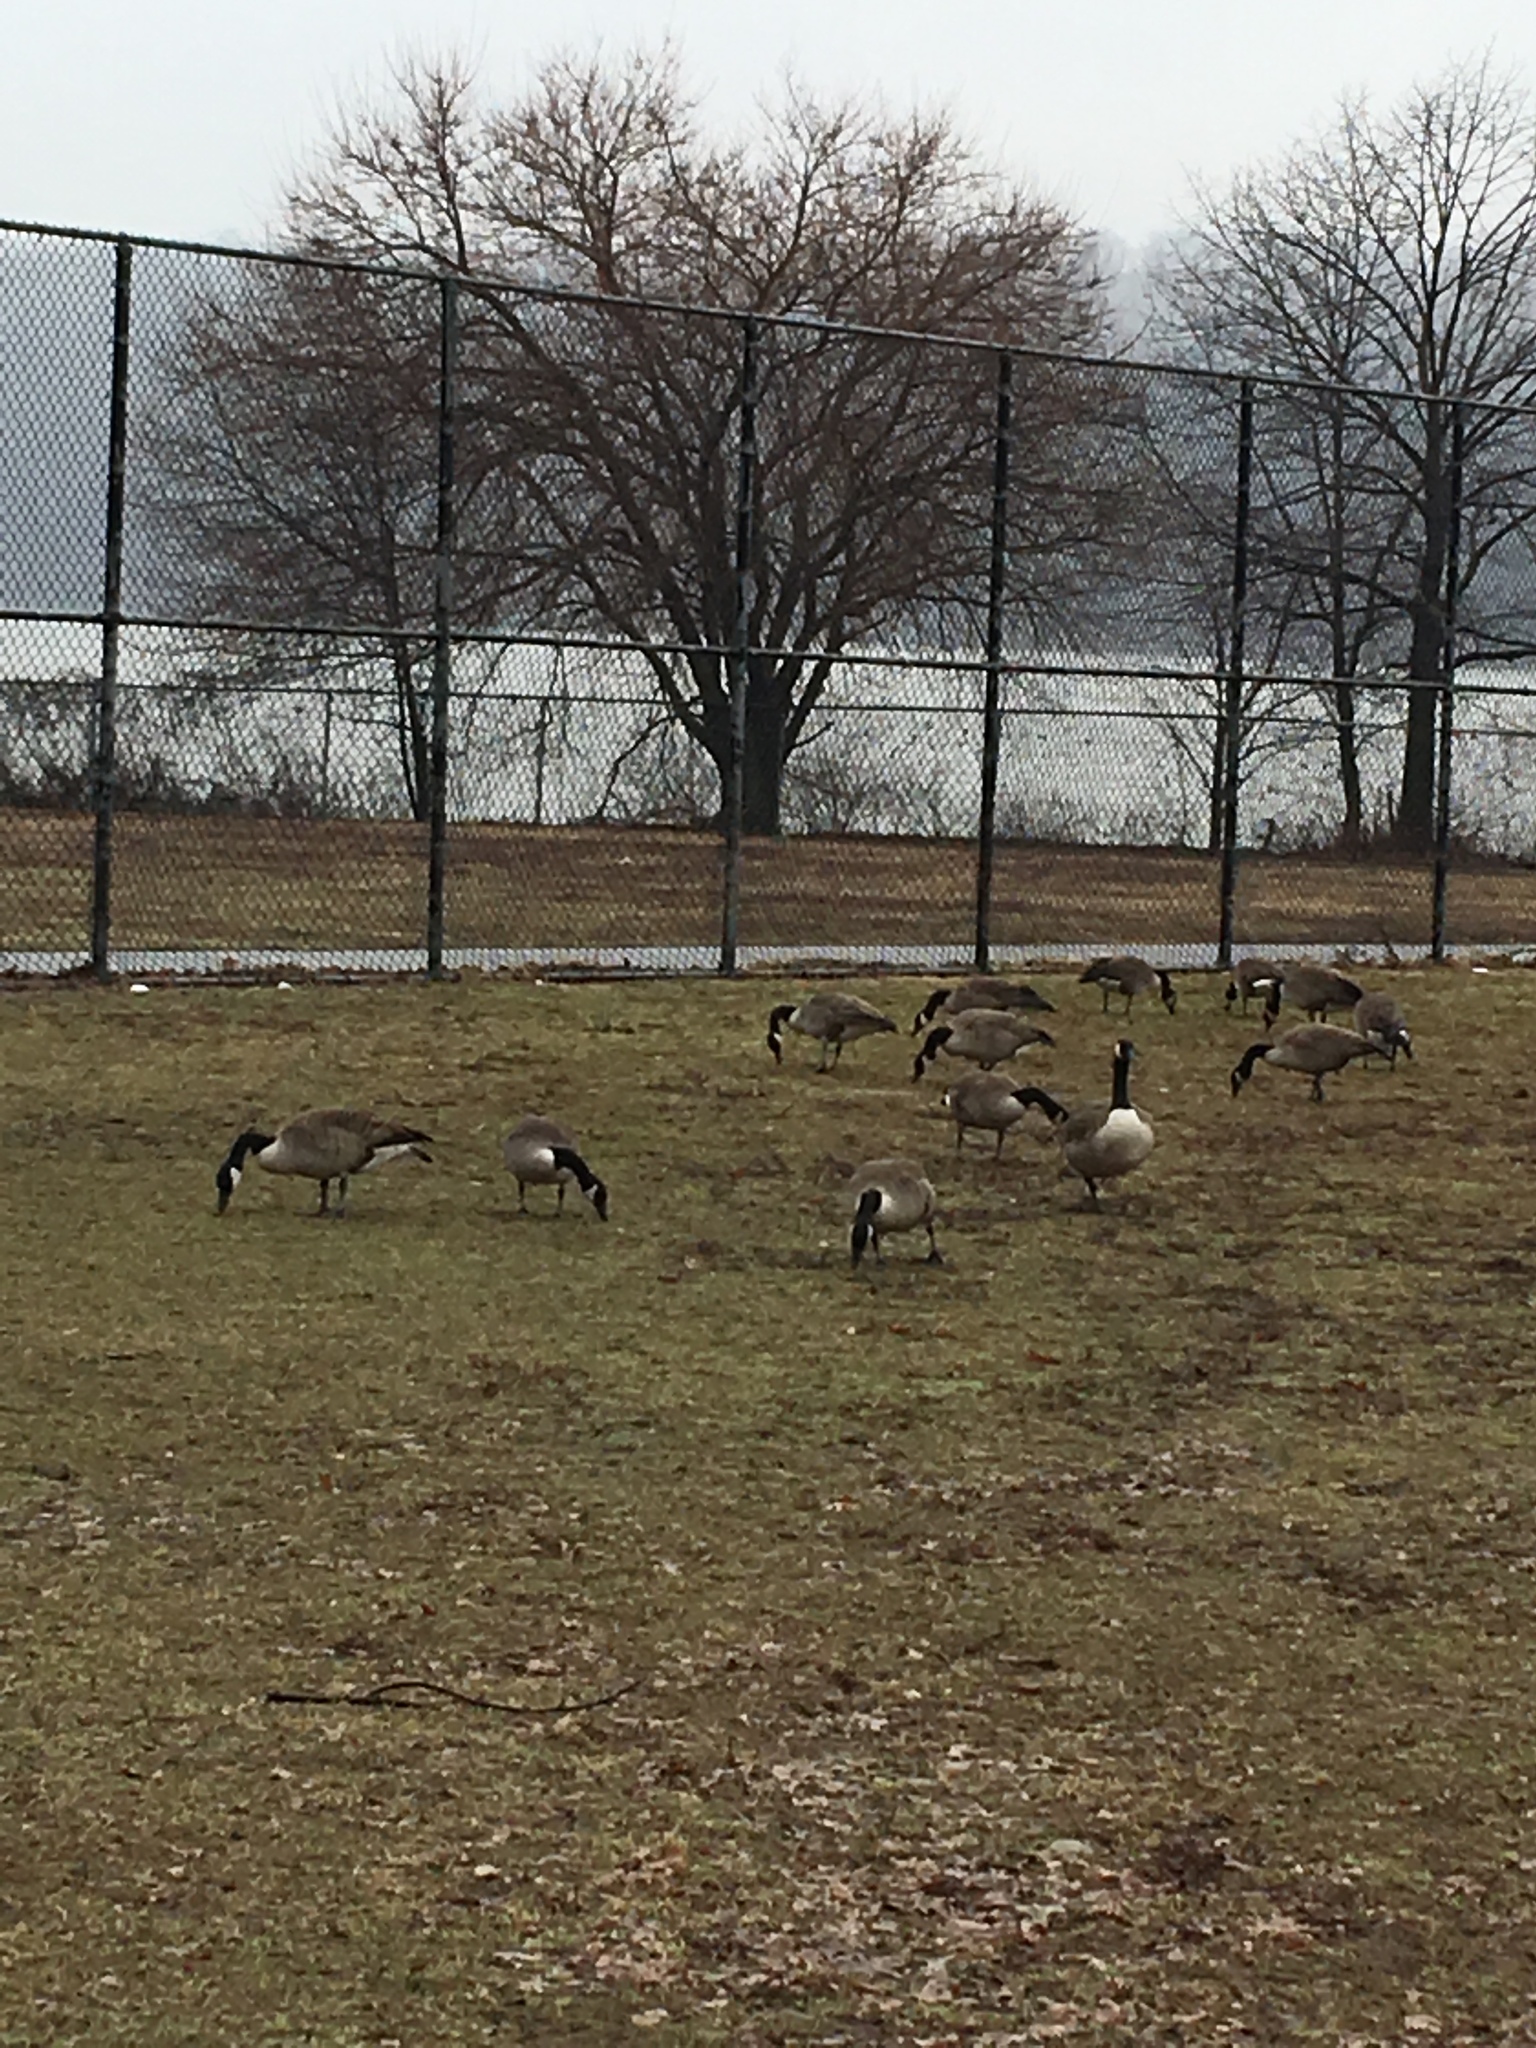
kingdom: Animalia
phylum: Chordata
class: Aves
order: Anseriformes
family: Anatidae
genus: Branta
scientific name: Branta canadensis
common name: Canada goose
